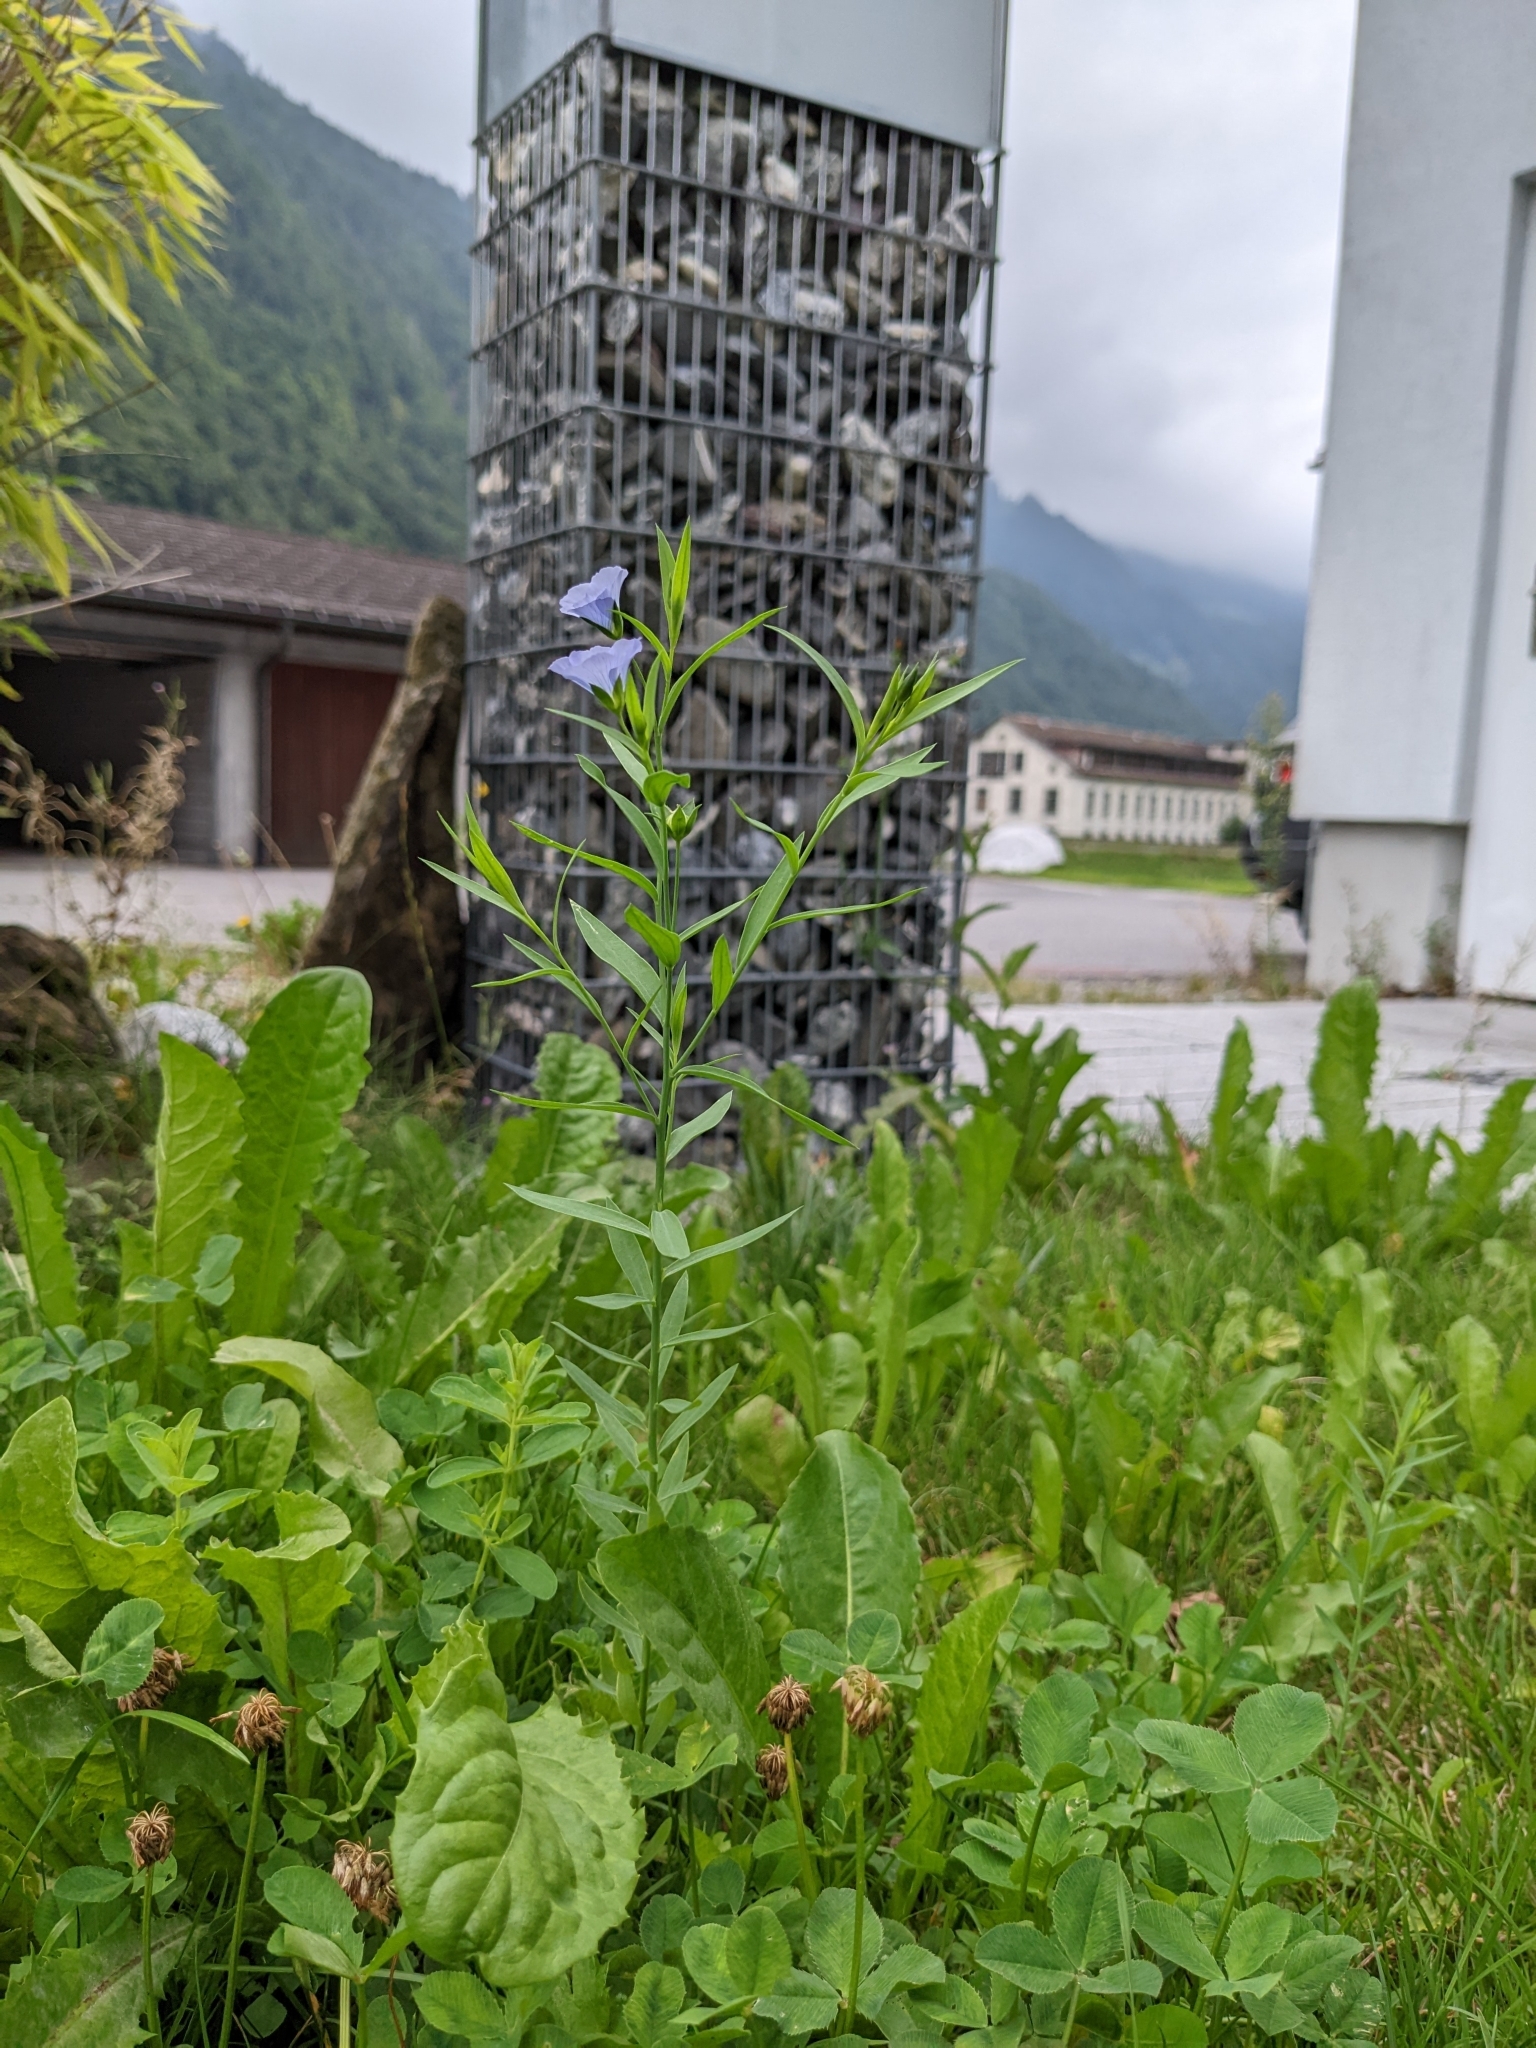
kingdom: Plantae
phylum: Tracheophyta
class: Magnoliopsida
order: Malpighiales
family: Linaceae
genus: Linum
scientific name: Linum usitatissimum
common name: Flax
